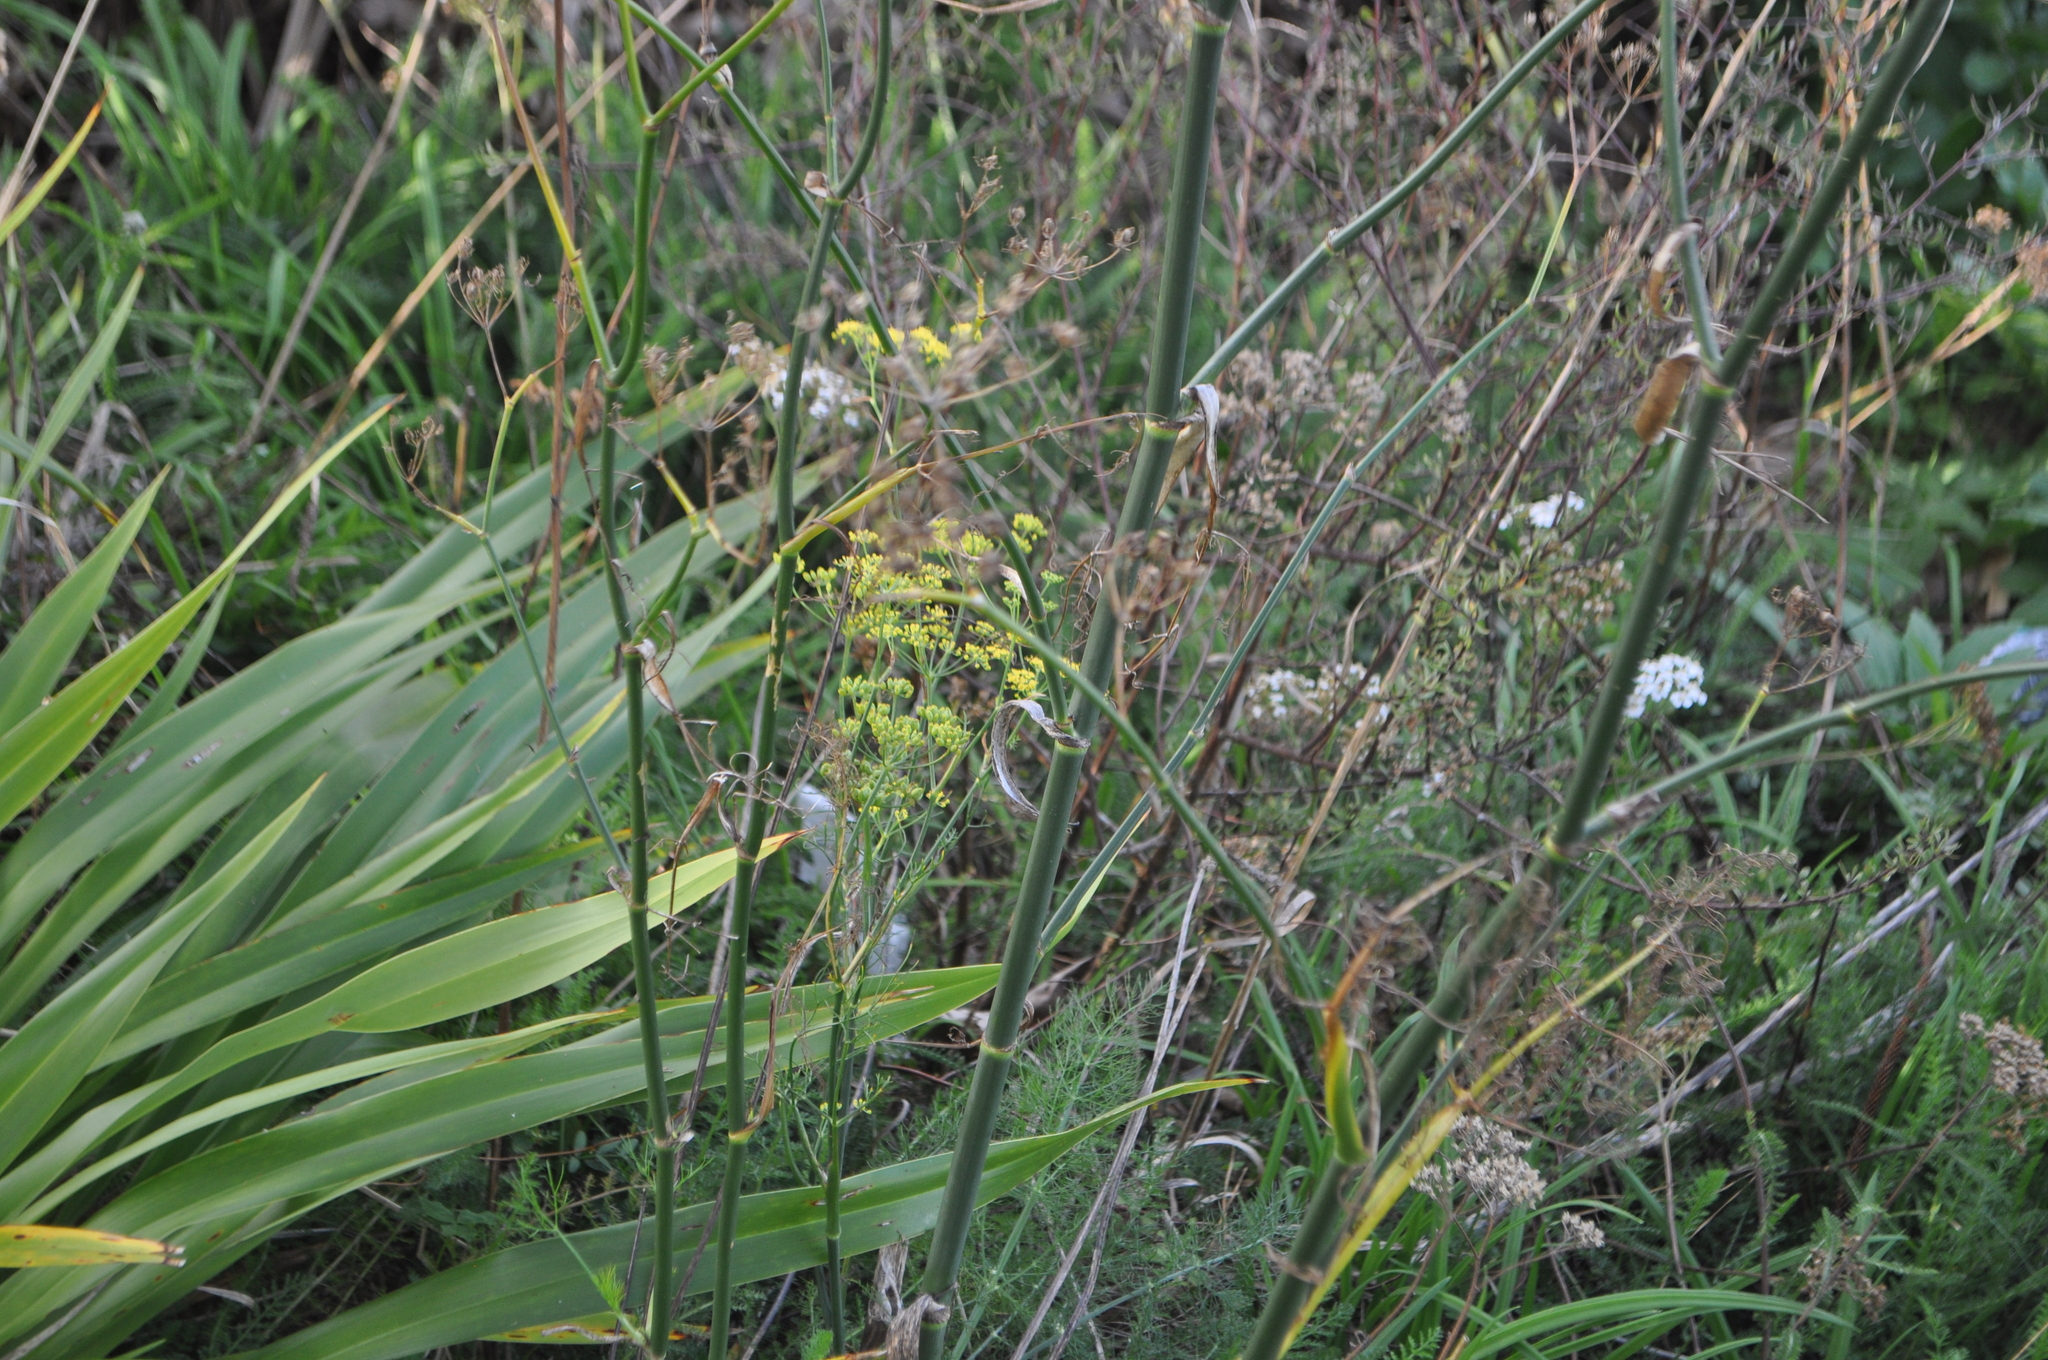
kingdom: Plantae
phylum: Tracheophyta
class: Magnoliopsida
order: Apiales
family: Apiaceae
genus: Foeniculum
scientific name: Foeniculum vulgare
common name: Fennel
